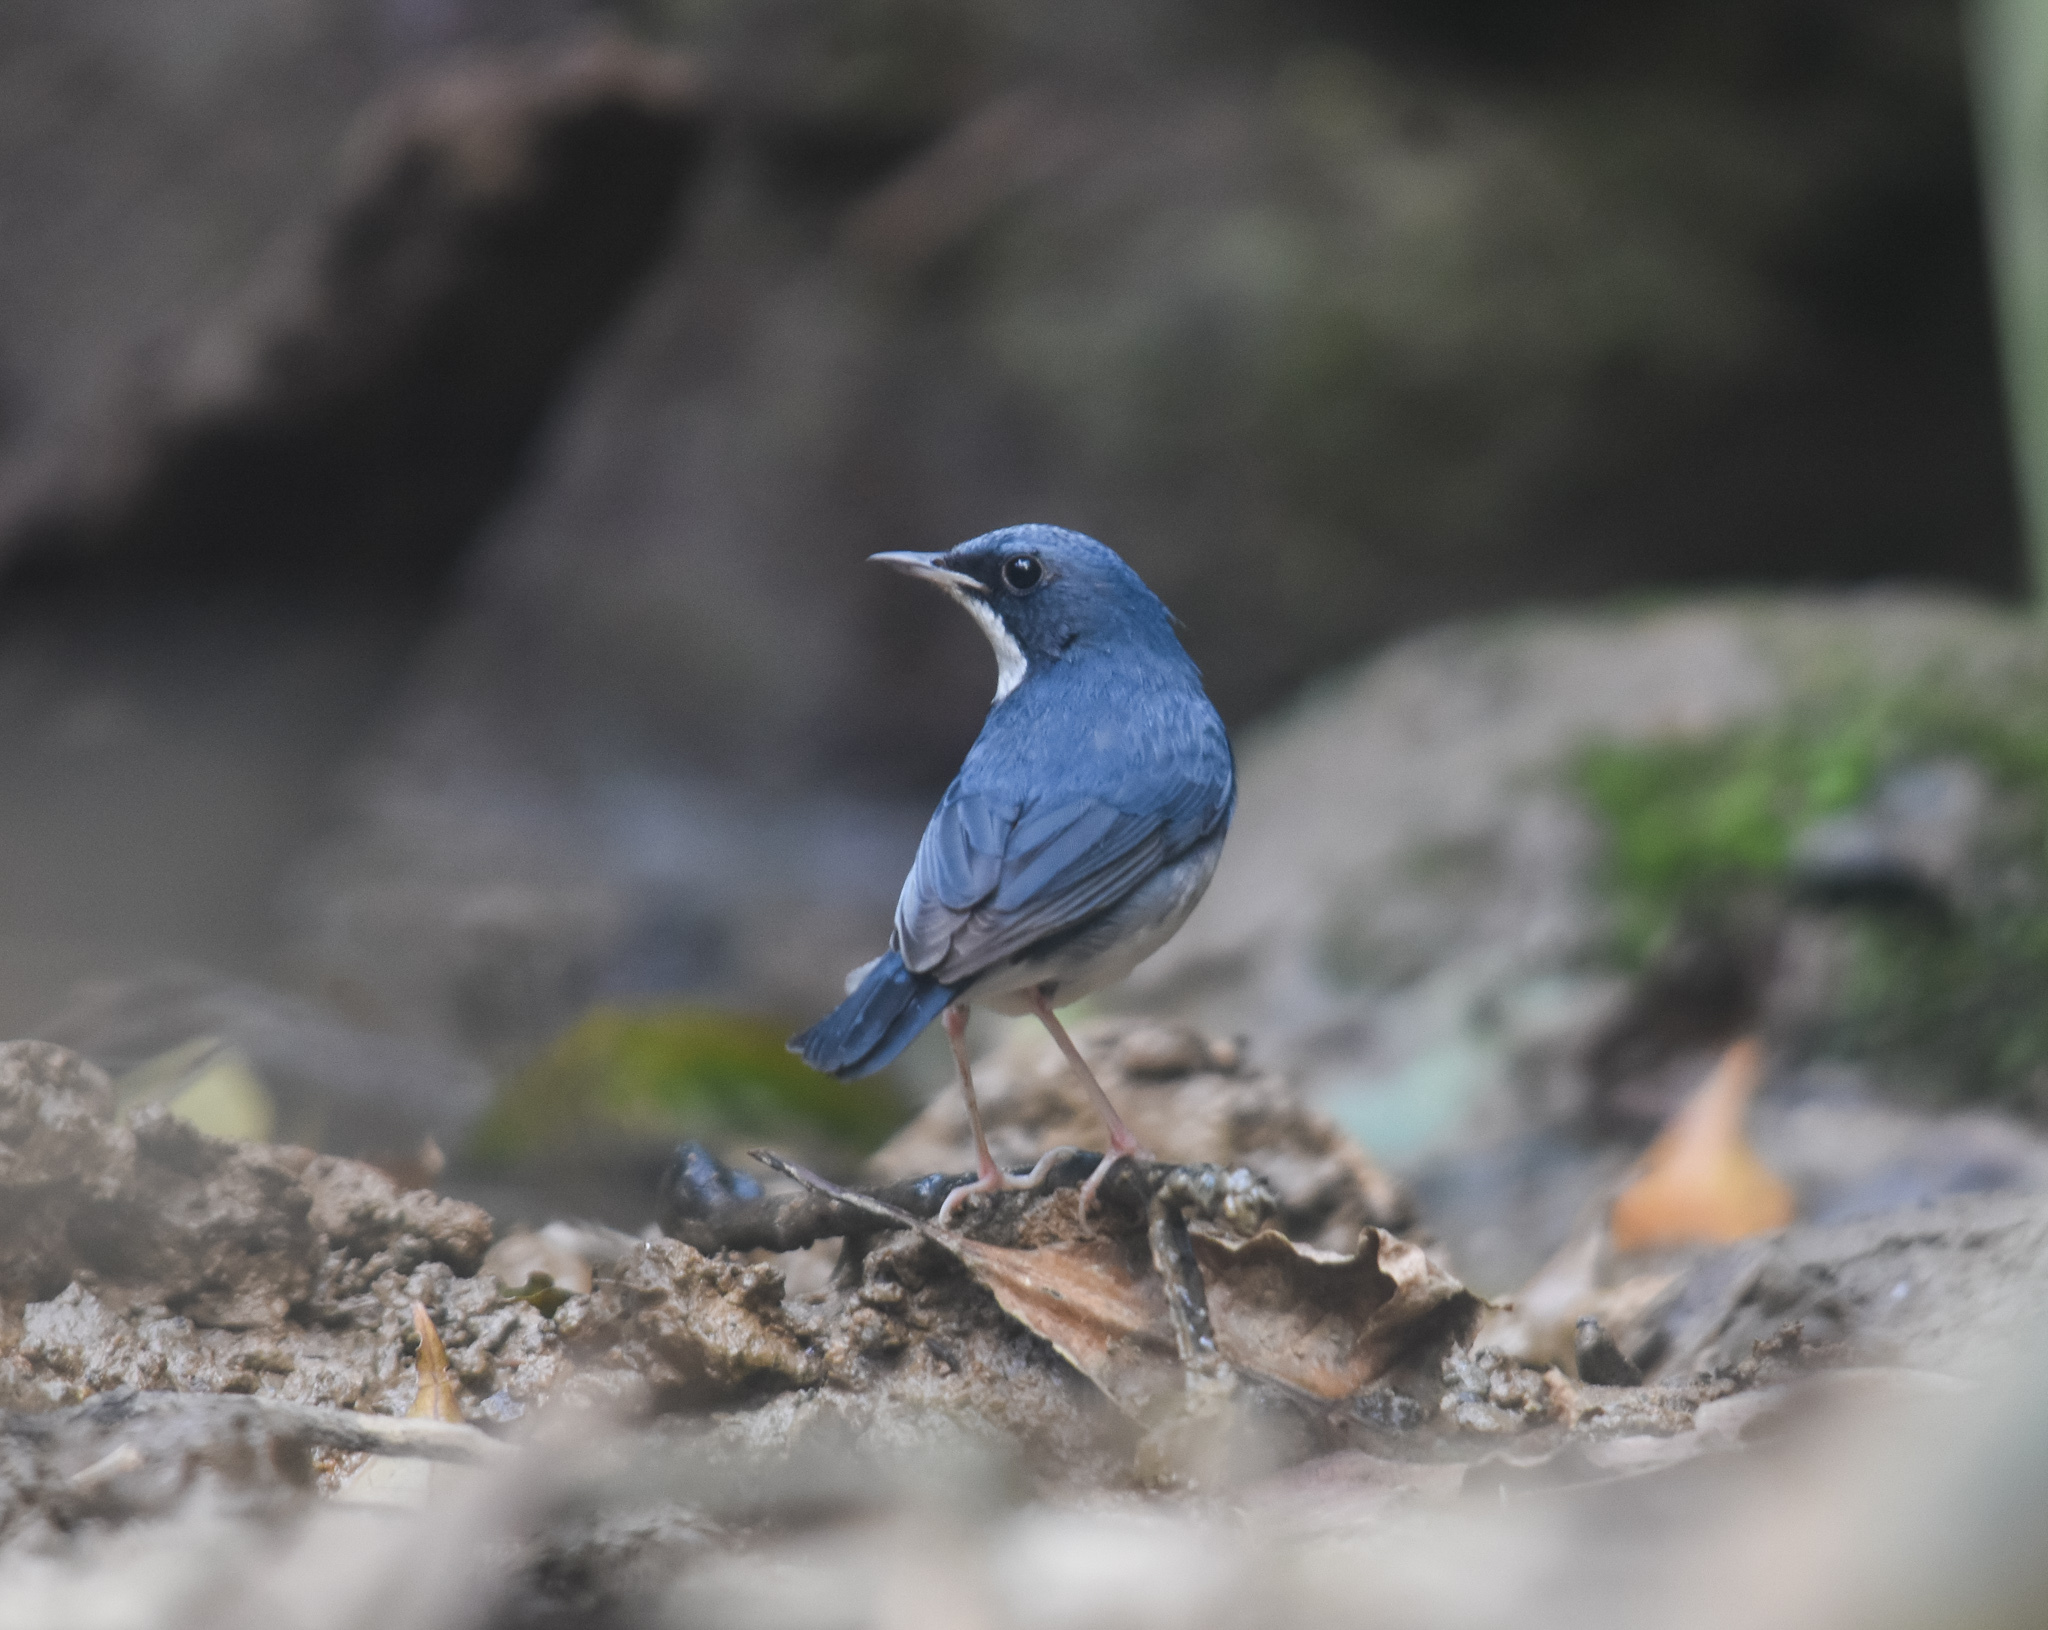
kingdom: Animalia
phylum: Chordata
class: Aves
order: Passeriformes
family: Muscicapidae
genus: Luscinia
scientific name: Luscinia cyane
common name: Siberian blue robin
